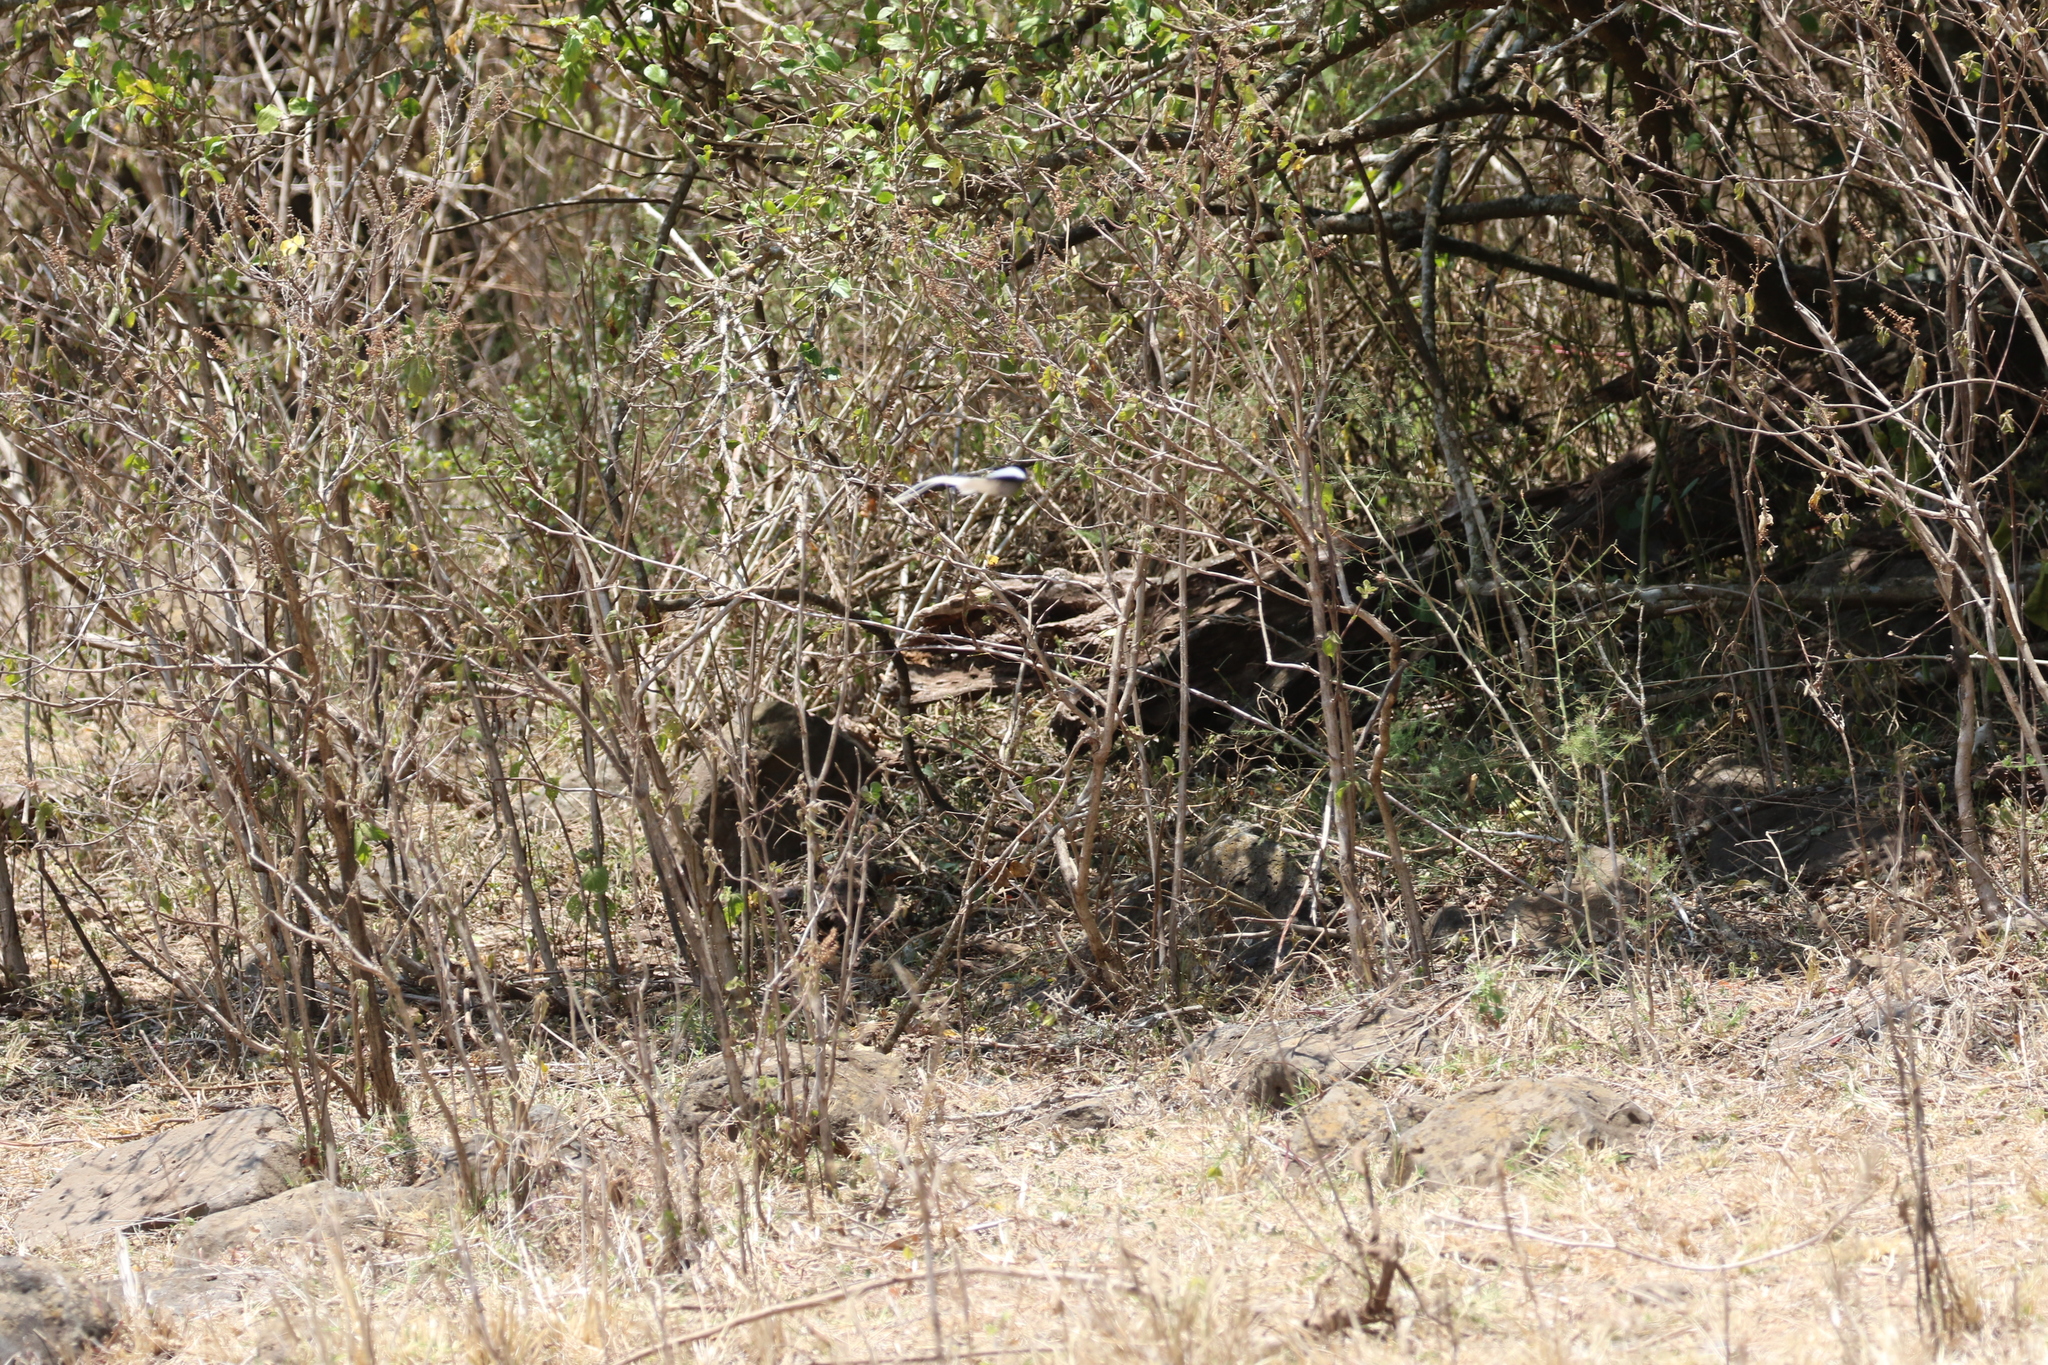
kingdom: Animalia
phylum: Chordata
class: Aves
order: Passeriformes
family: Monarchidae
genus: Terpsiphone
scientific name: Terpsiphone viridis
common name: African paradise flycatcher
